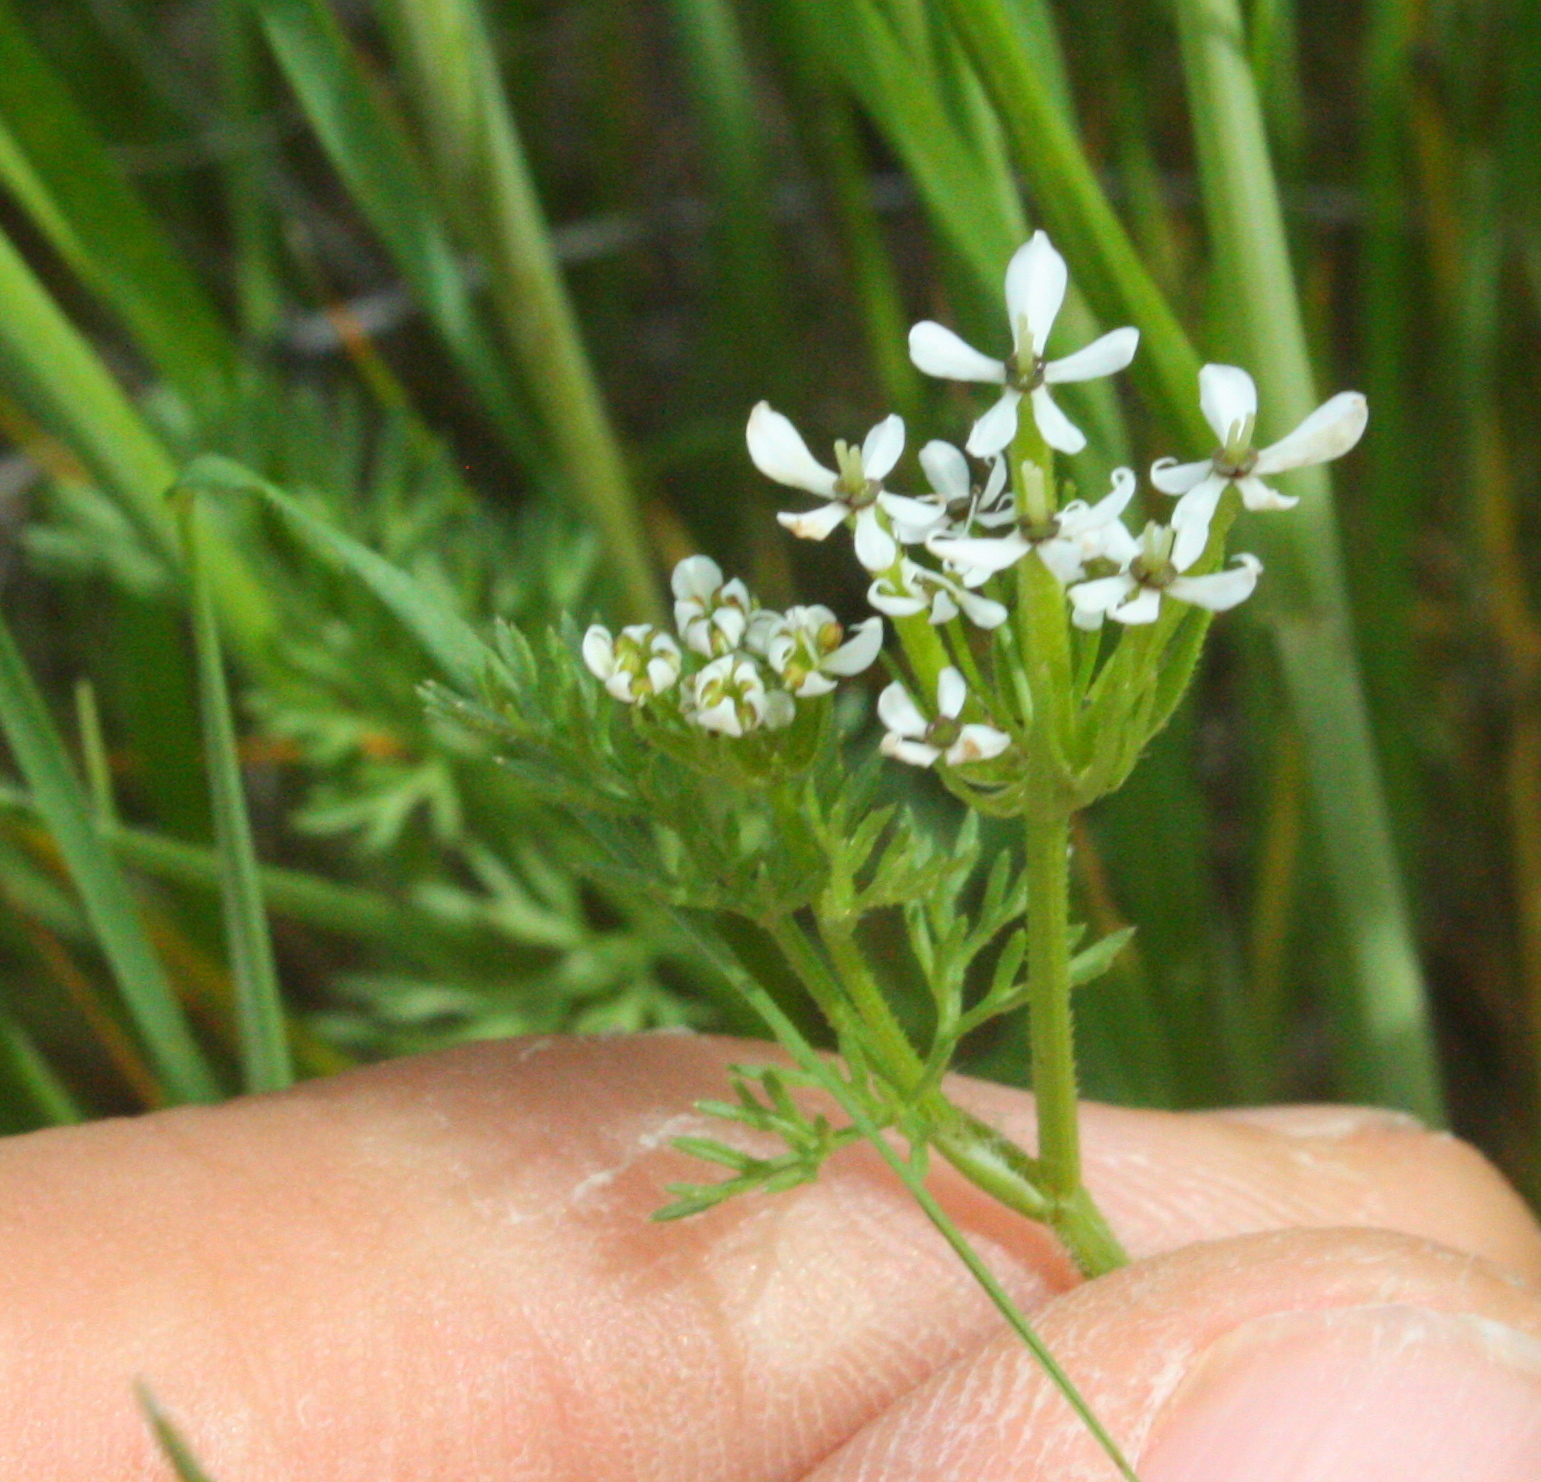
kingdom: Plantae
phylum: Tracheophyta
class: Magnoliopsida
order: Apiales
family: Apiaceae
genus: Scandix
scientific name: Scandix pecten-veneris
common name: Shepherd's-needle
